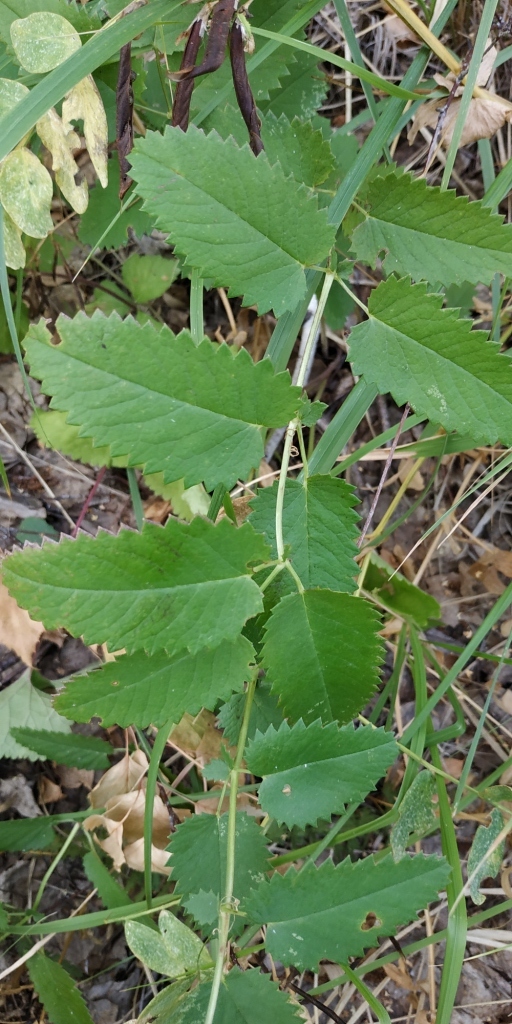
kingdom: Plantae
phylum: Tracheophyta
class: Magnoliopsida
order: Rosales
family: Rosaceae
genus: Sanguisorba
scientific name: Sanguisorba officinalis
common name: Great burnet
